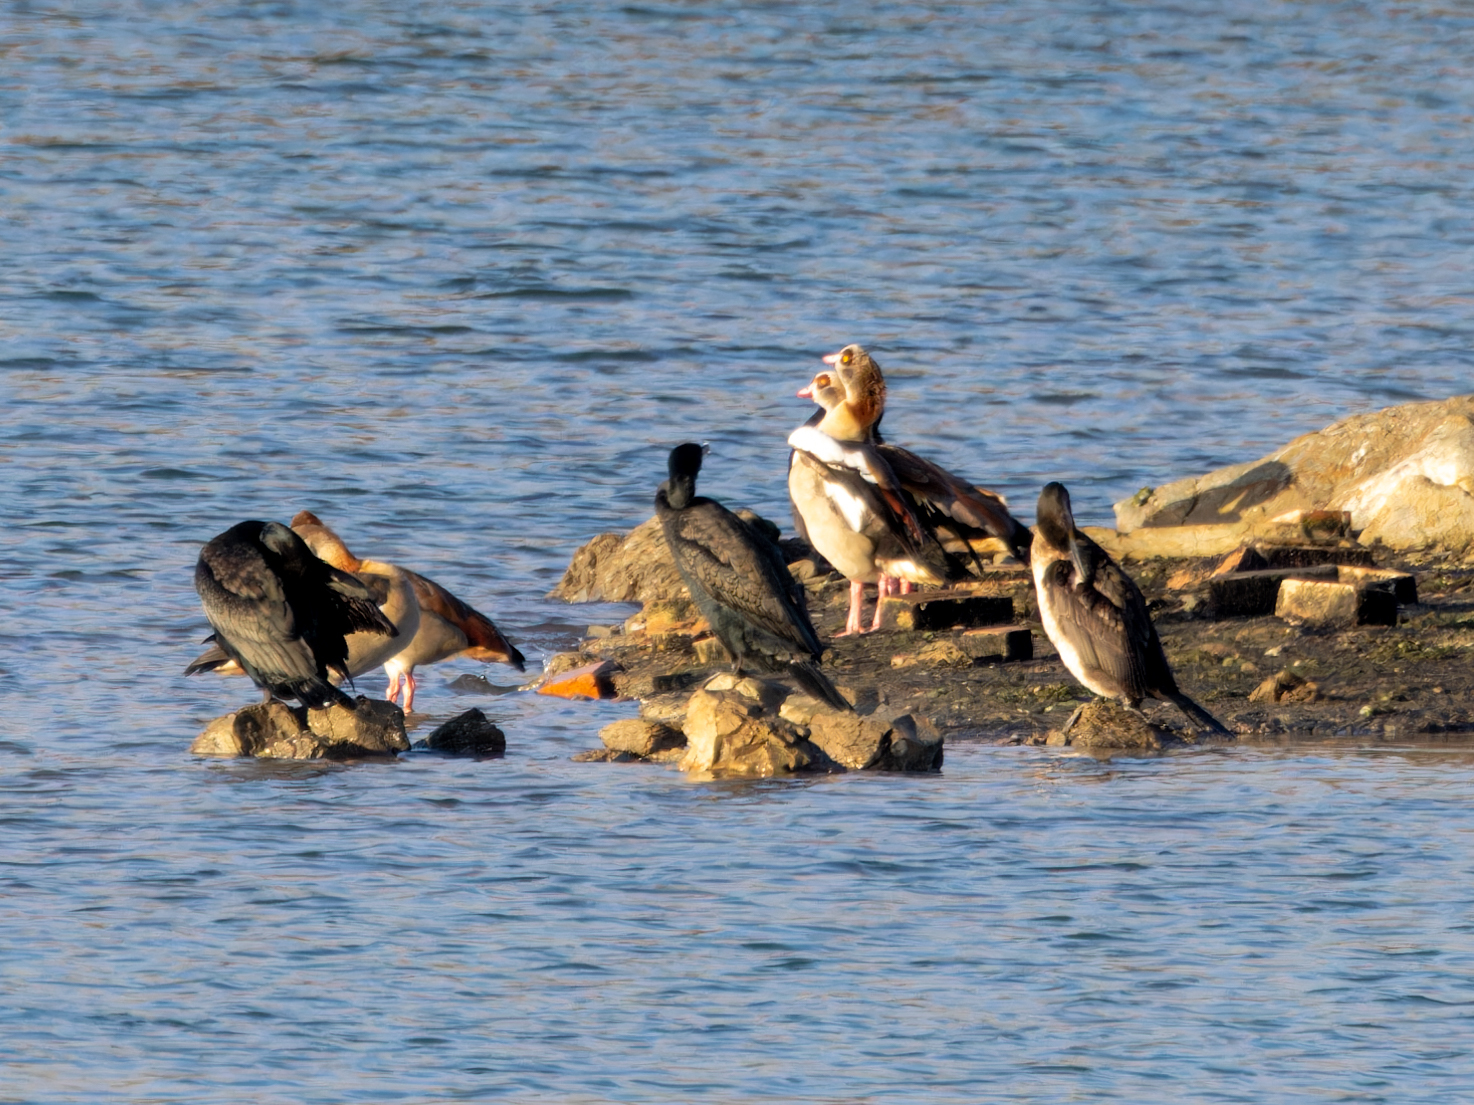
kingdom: Animalia
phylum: Chordata
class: Aves
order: Anseriformes
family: Anatidae
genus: Alopochen
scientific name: Alopochen aegyptiaca
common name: Egyptian goose
